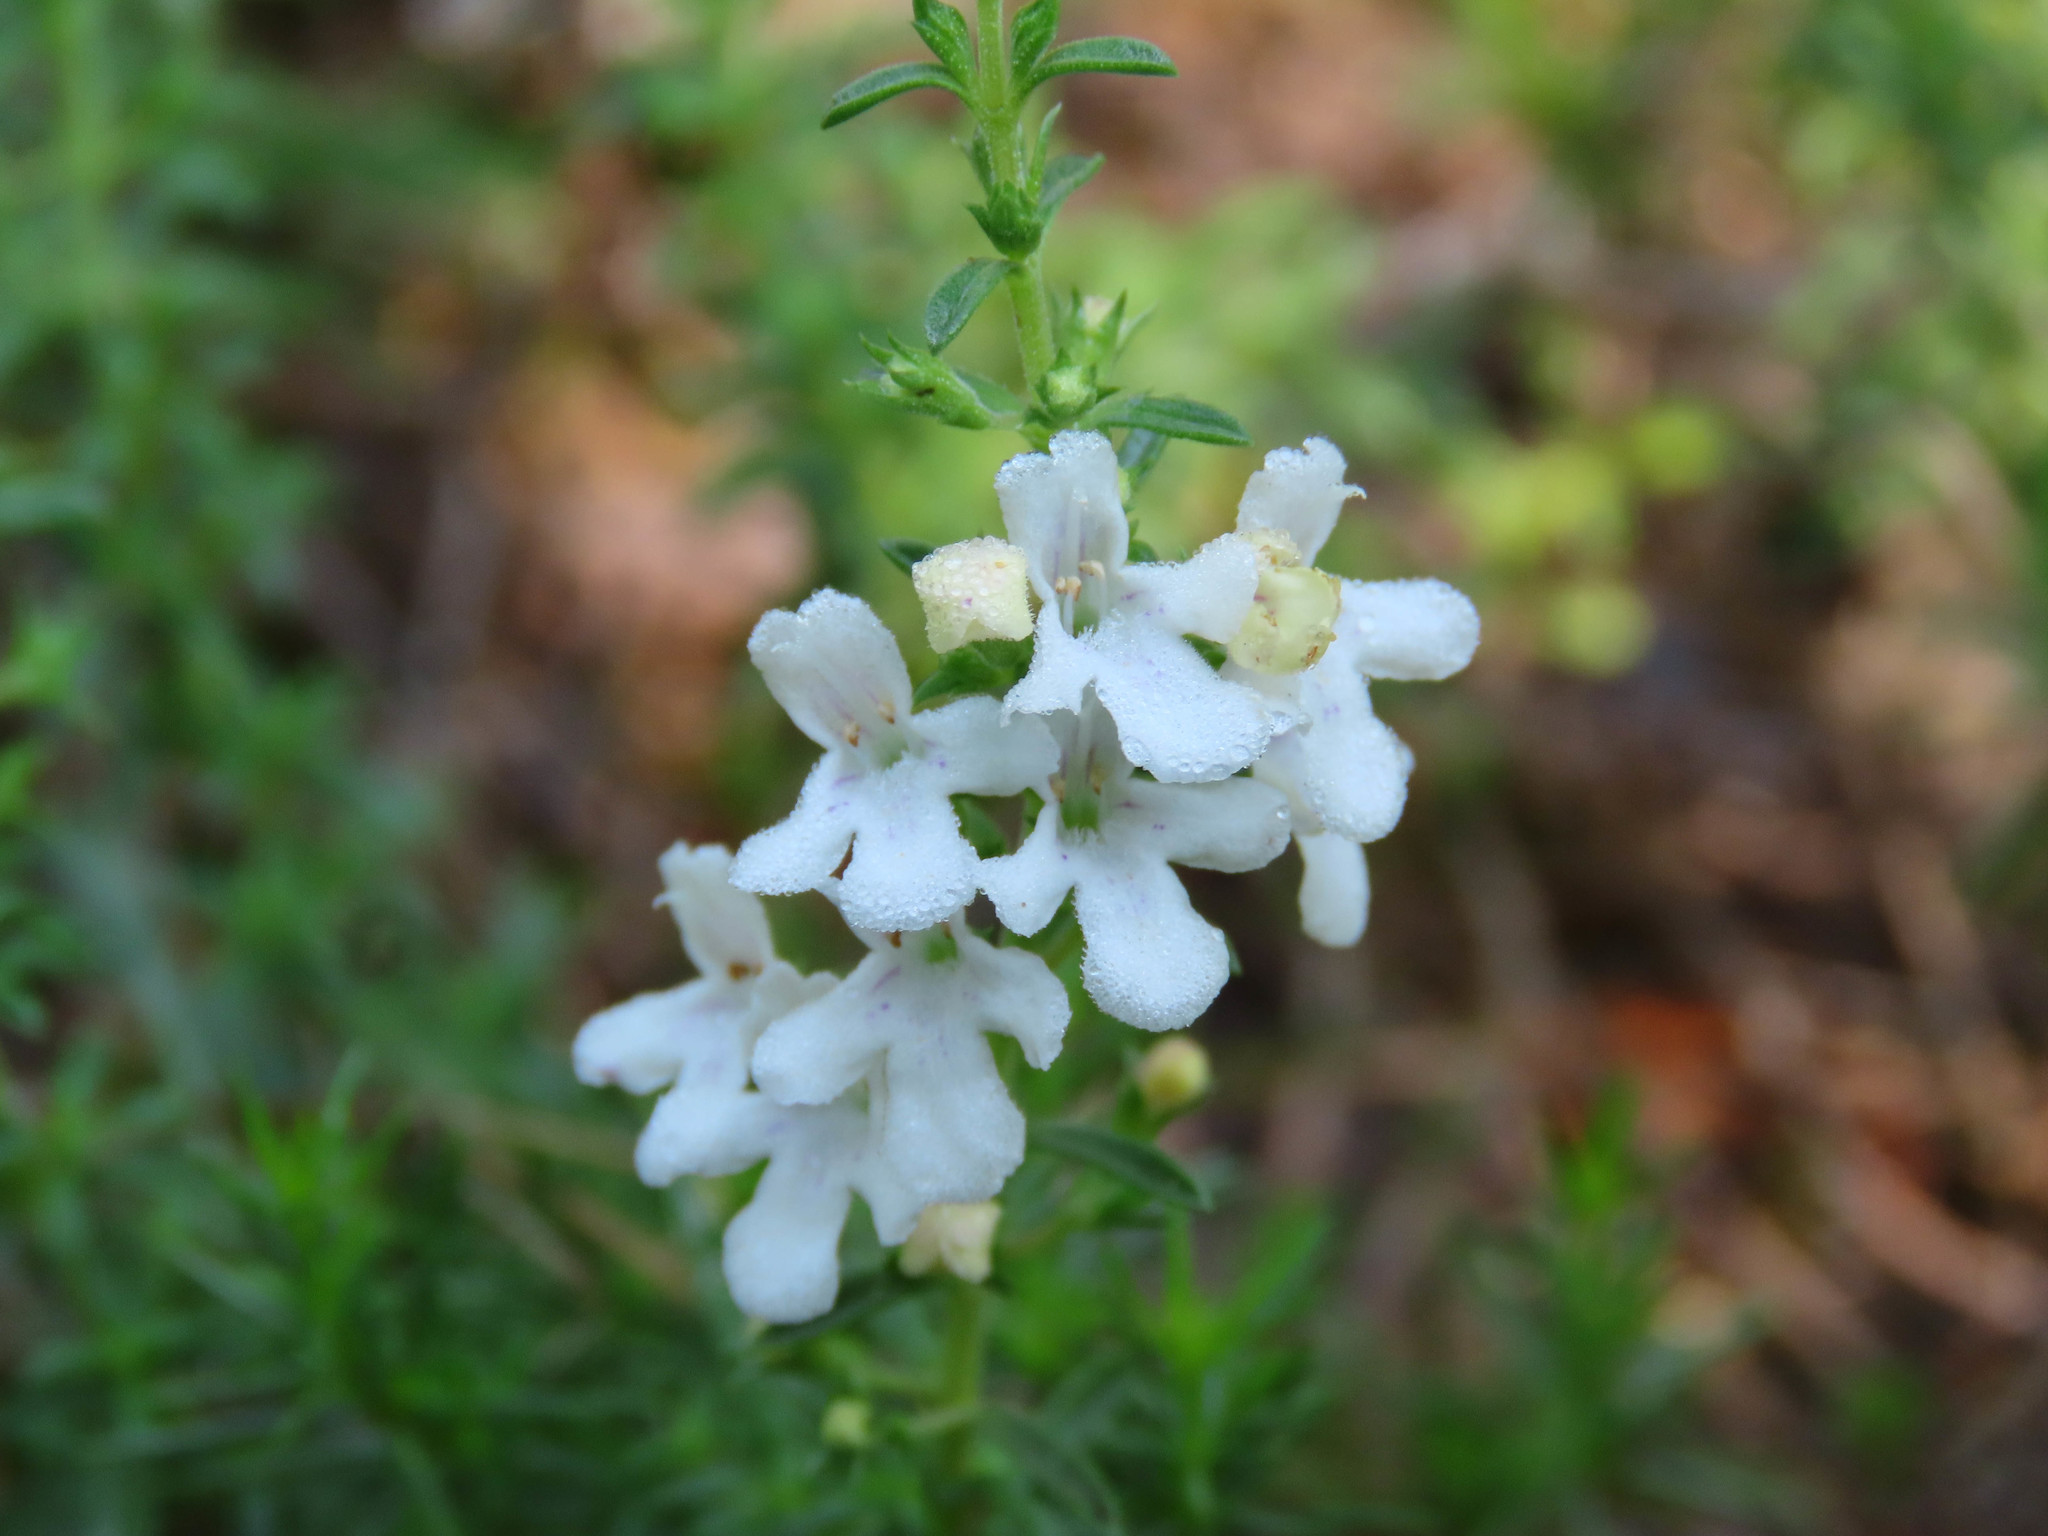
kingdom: Plantae
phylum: Tracheophyta
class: Magnoliopsida
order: Lamiales
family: Lamiaceae
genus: Satureja
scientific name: Satureja montana
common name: Winter savory
